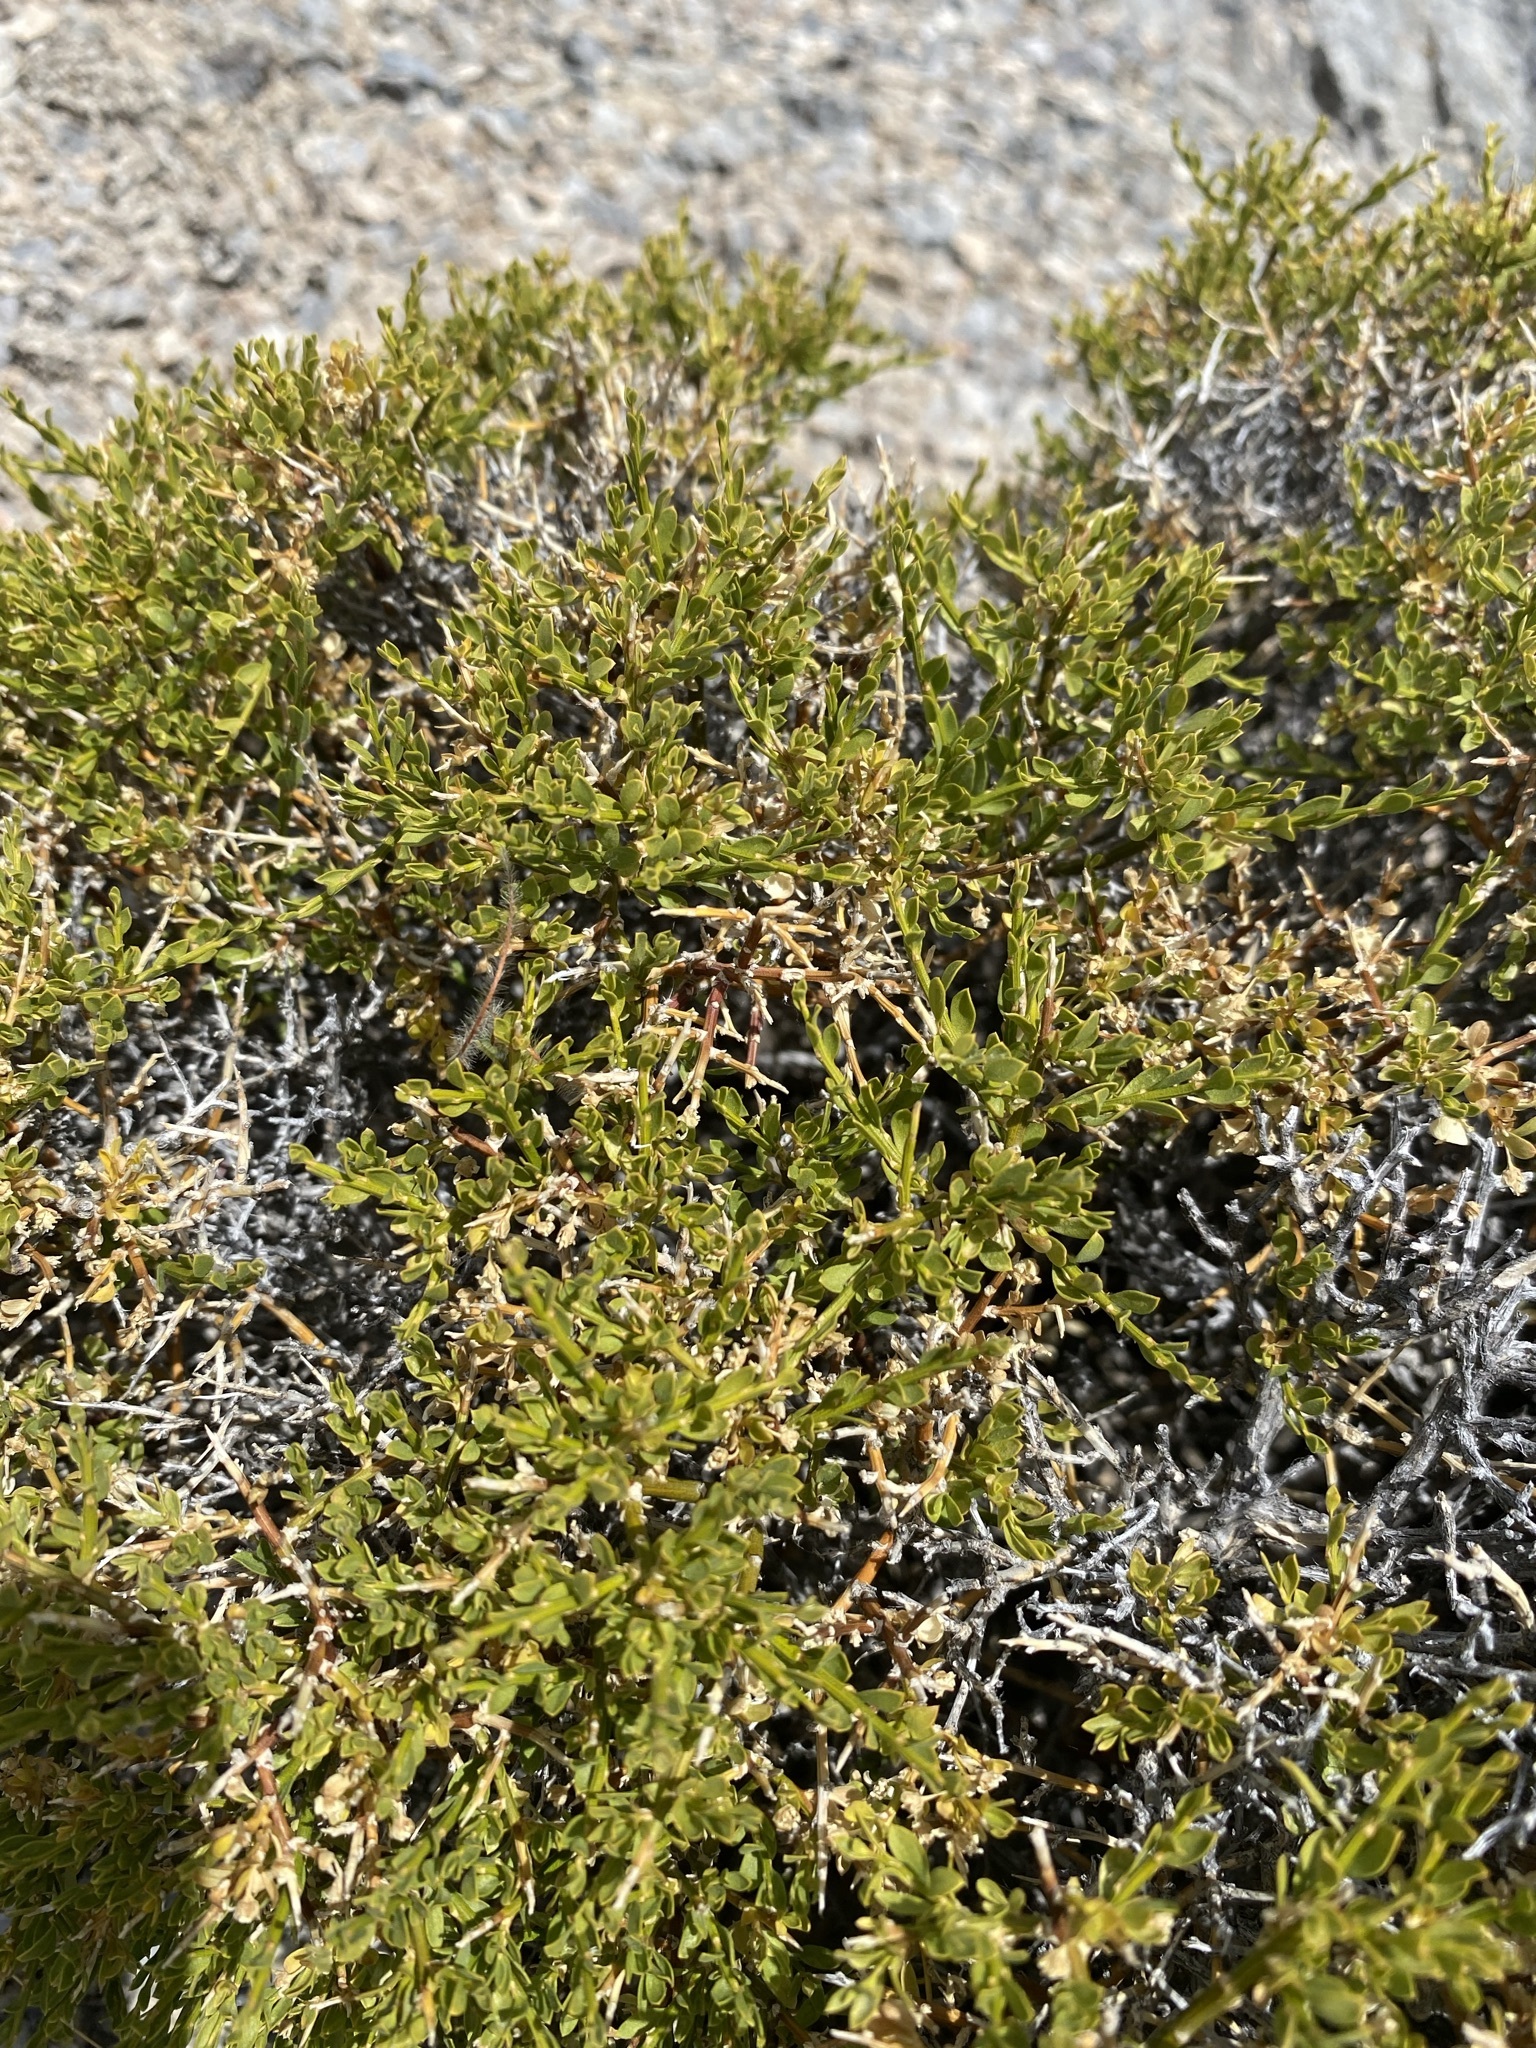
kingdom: Plantae
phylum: Tracheophyta
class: Magnoliopsida
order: Crossosomatales
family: Crossosomataceae
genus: Glossopetalon
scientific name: Glossopetalon spinescens
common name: Spring greasebush
